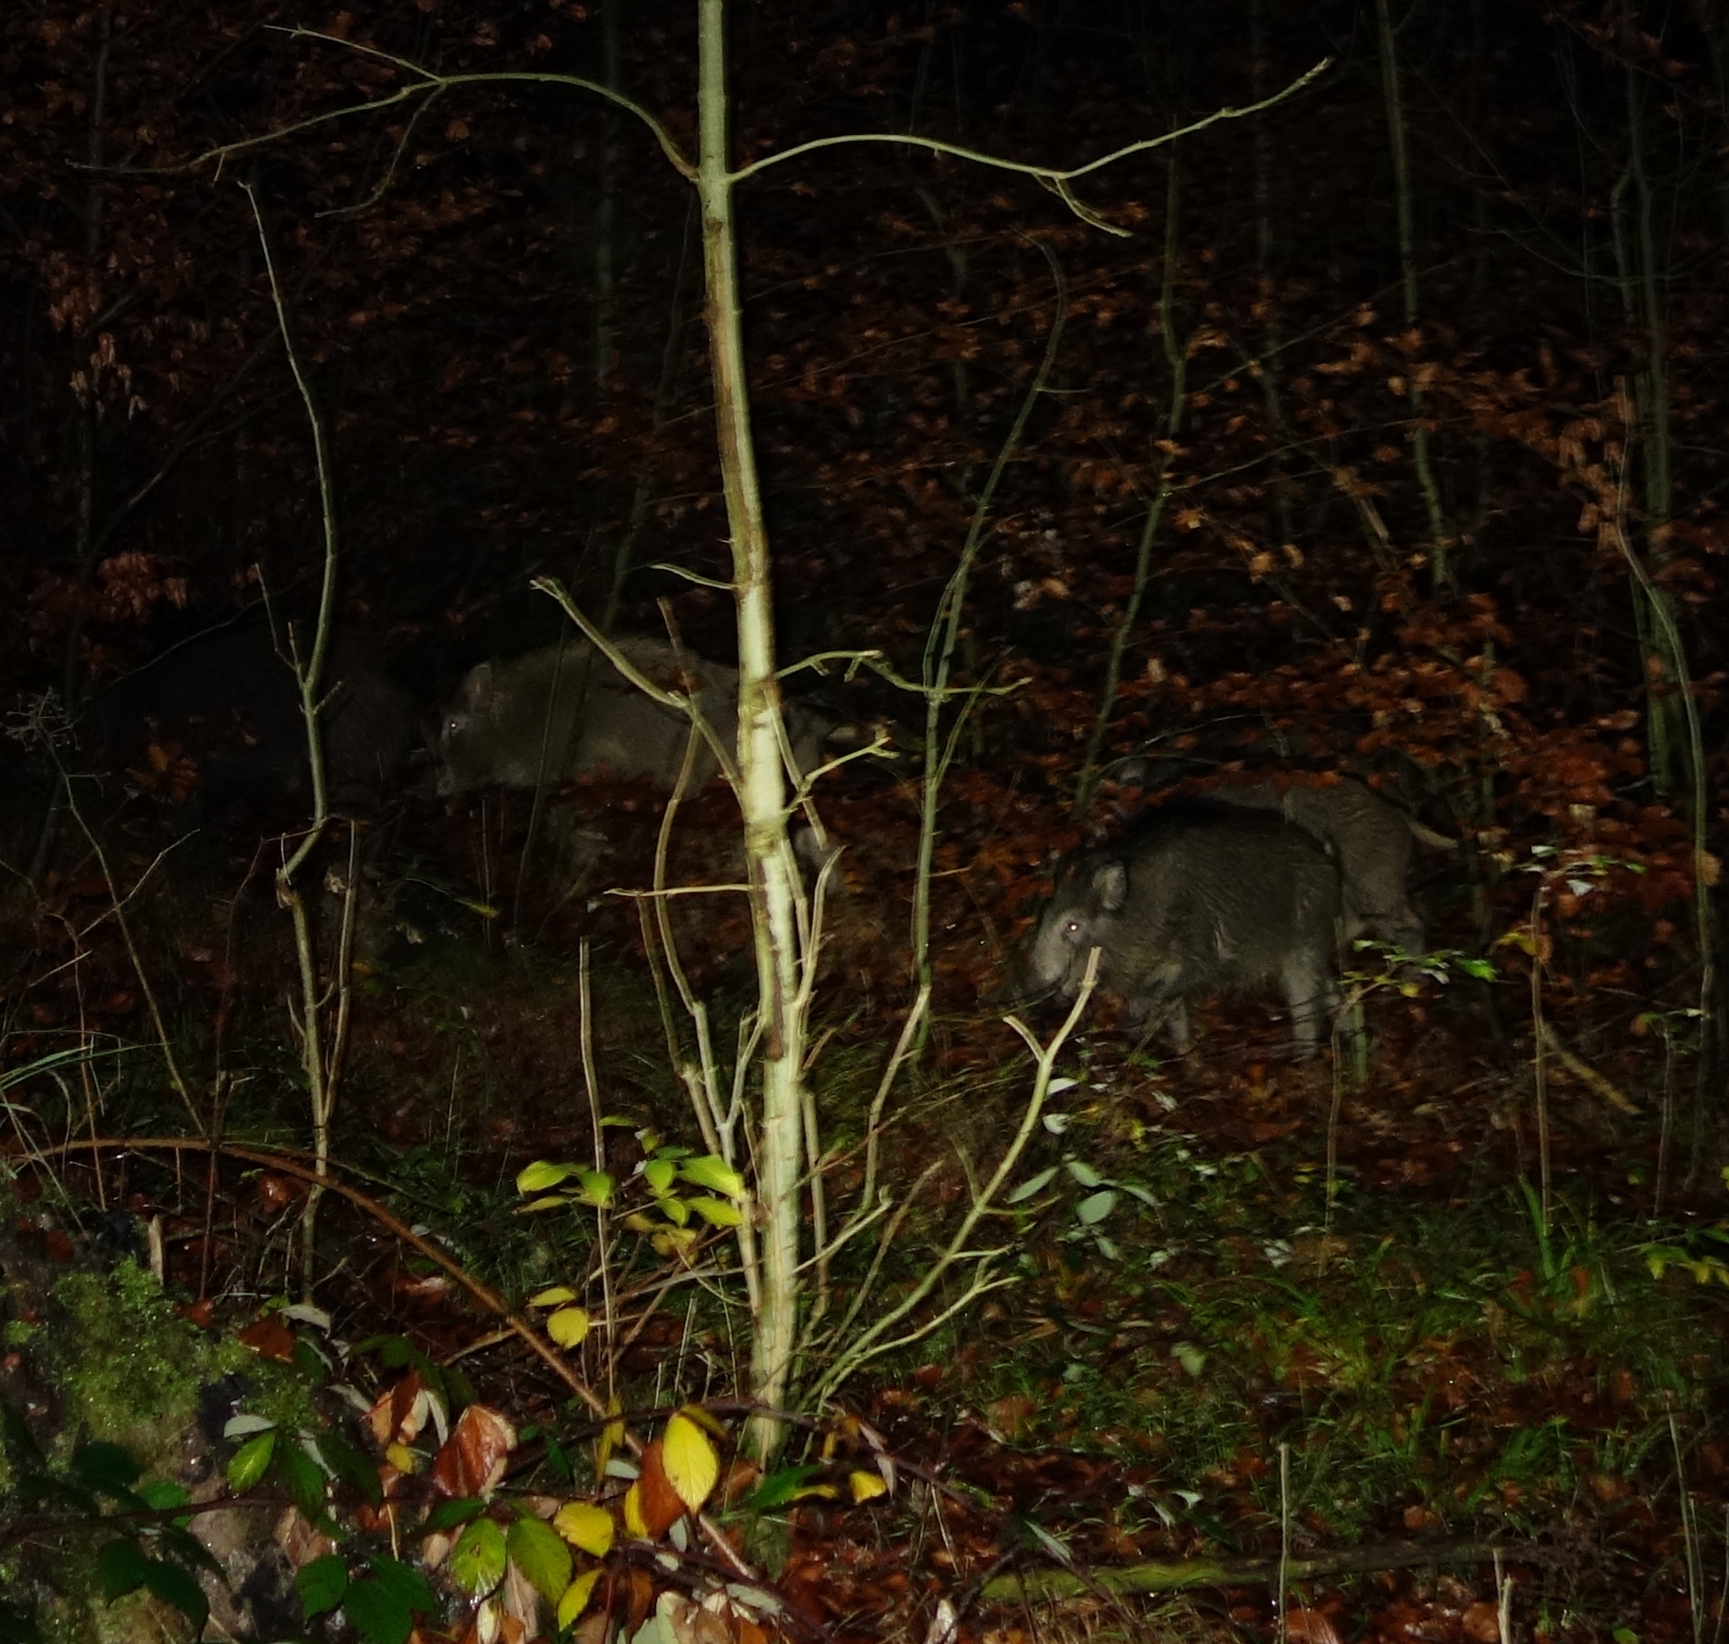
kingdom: Animalia
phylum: Chordata
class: Mammalia
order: Artiodactyla
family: Suidae
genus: Sus
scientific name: Sus scrofa
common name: Wild boar
